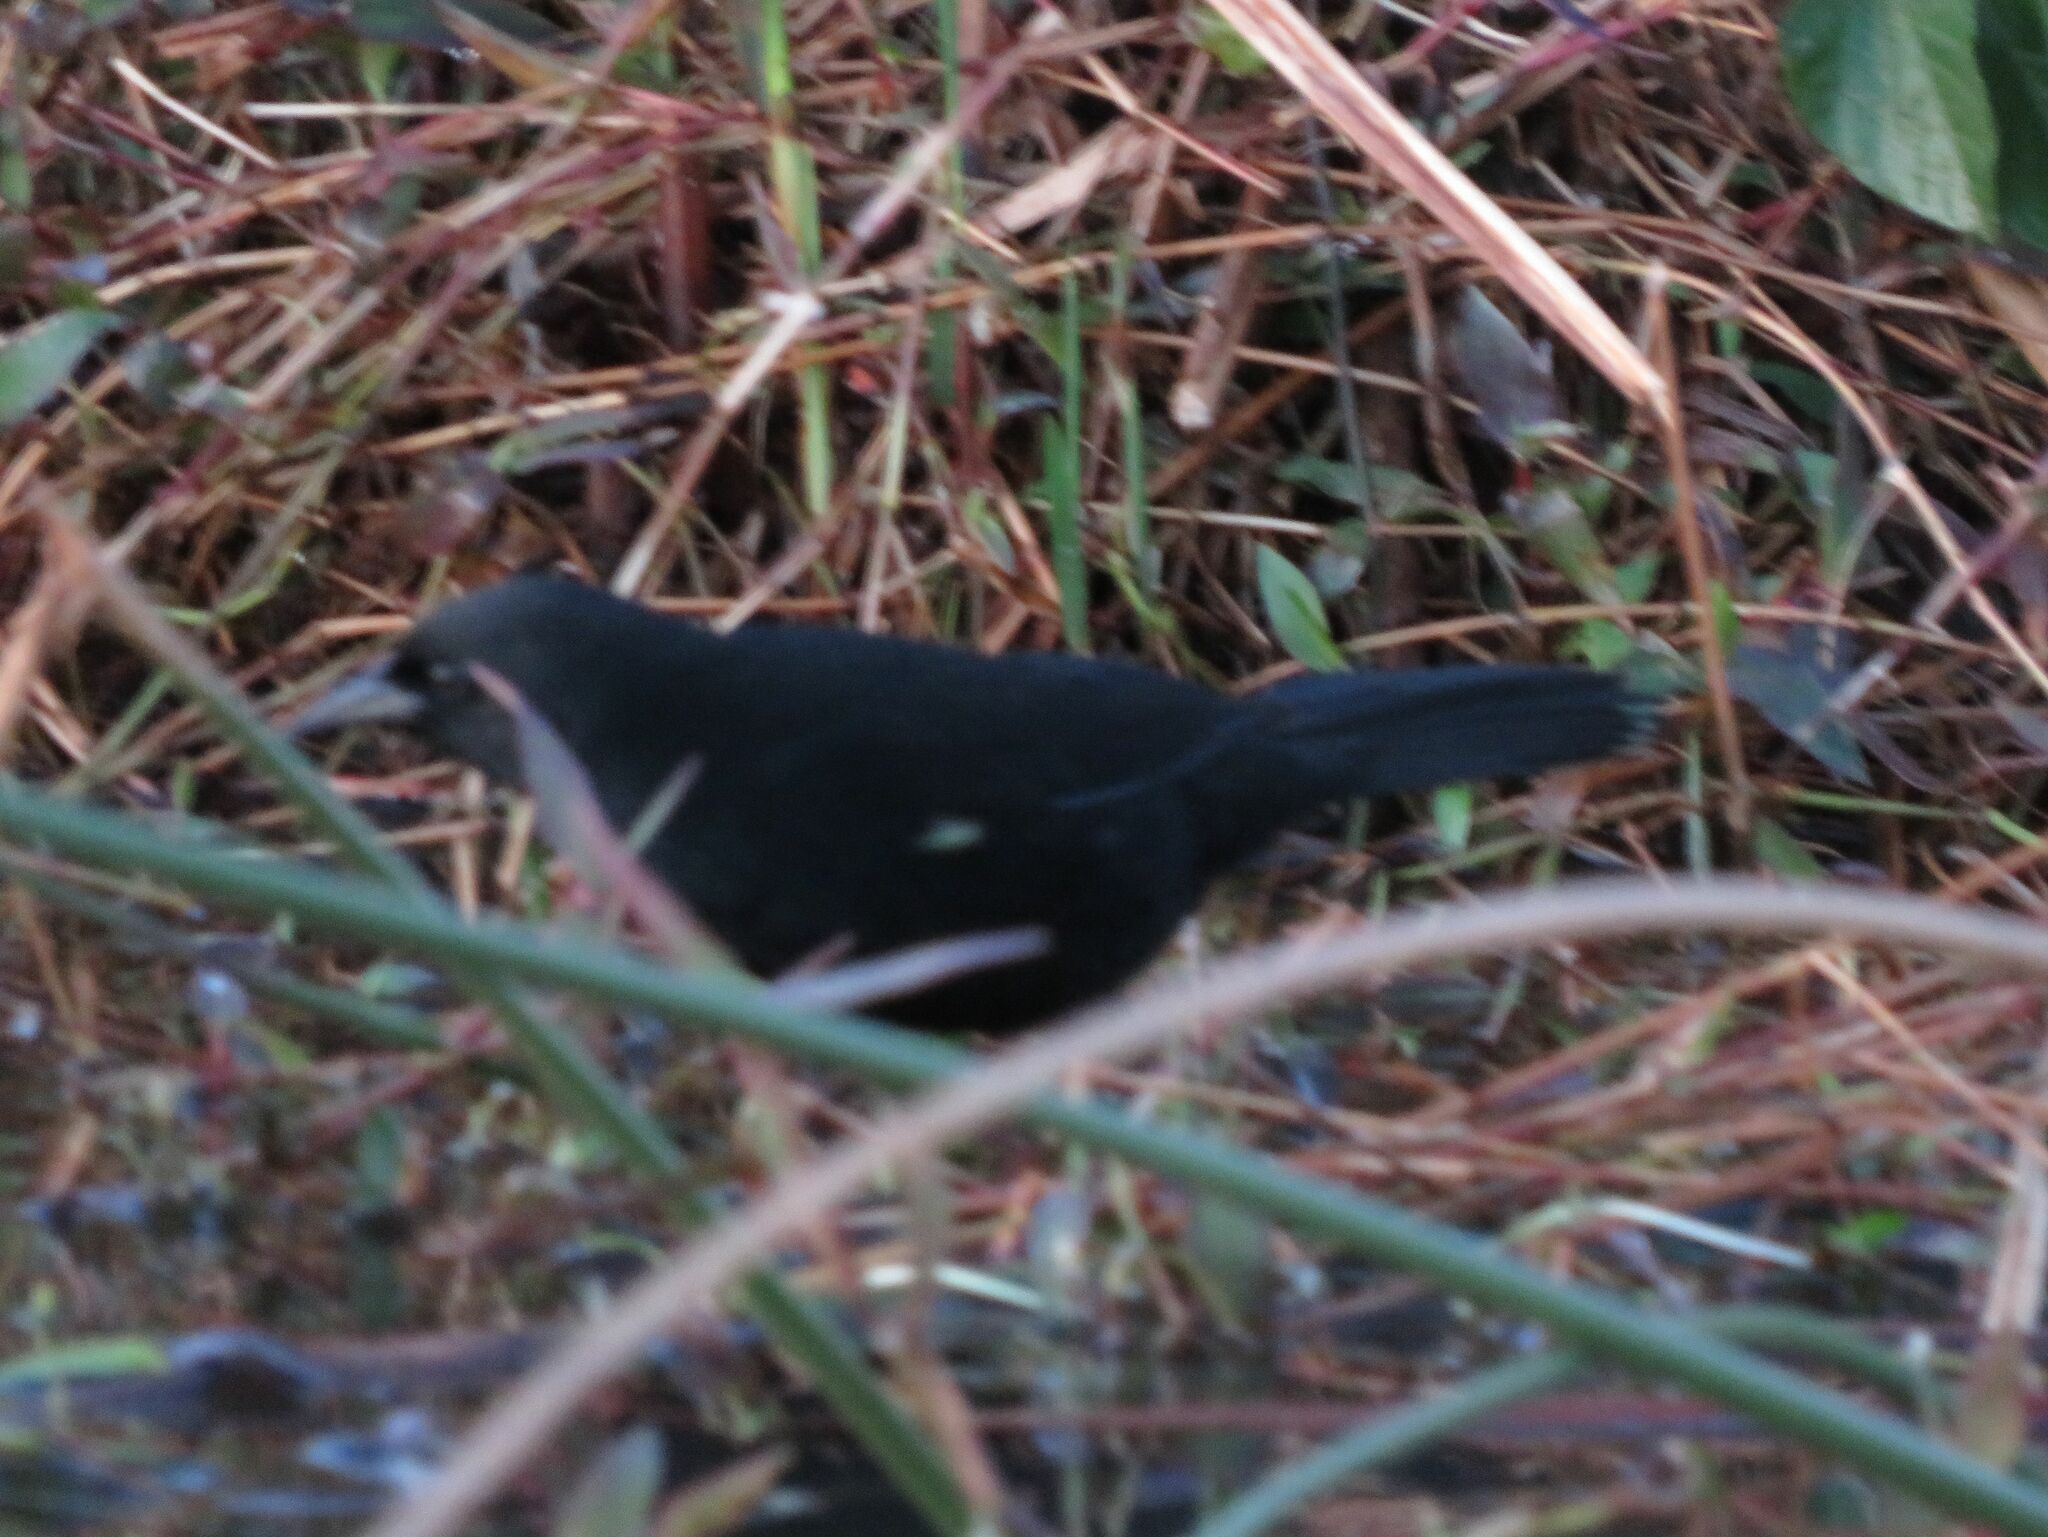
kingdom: Animalia
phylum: Chordata
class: Aves
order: Passeriformes
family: Icteridae
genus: Agelasticus
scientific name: Agelasticus cyanopus
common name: Unicolored blackbird
